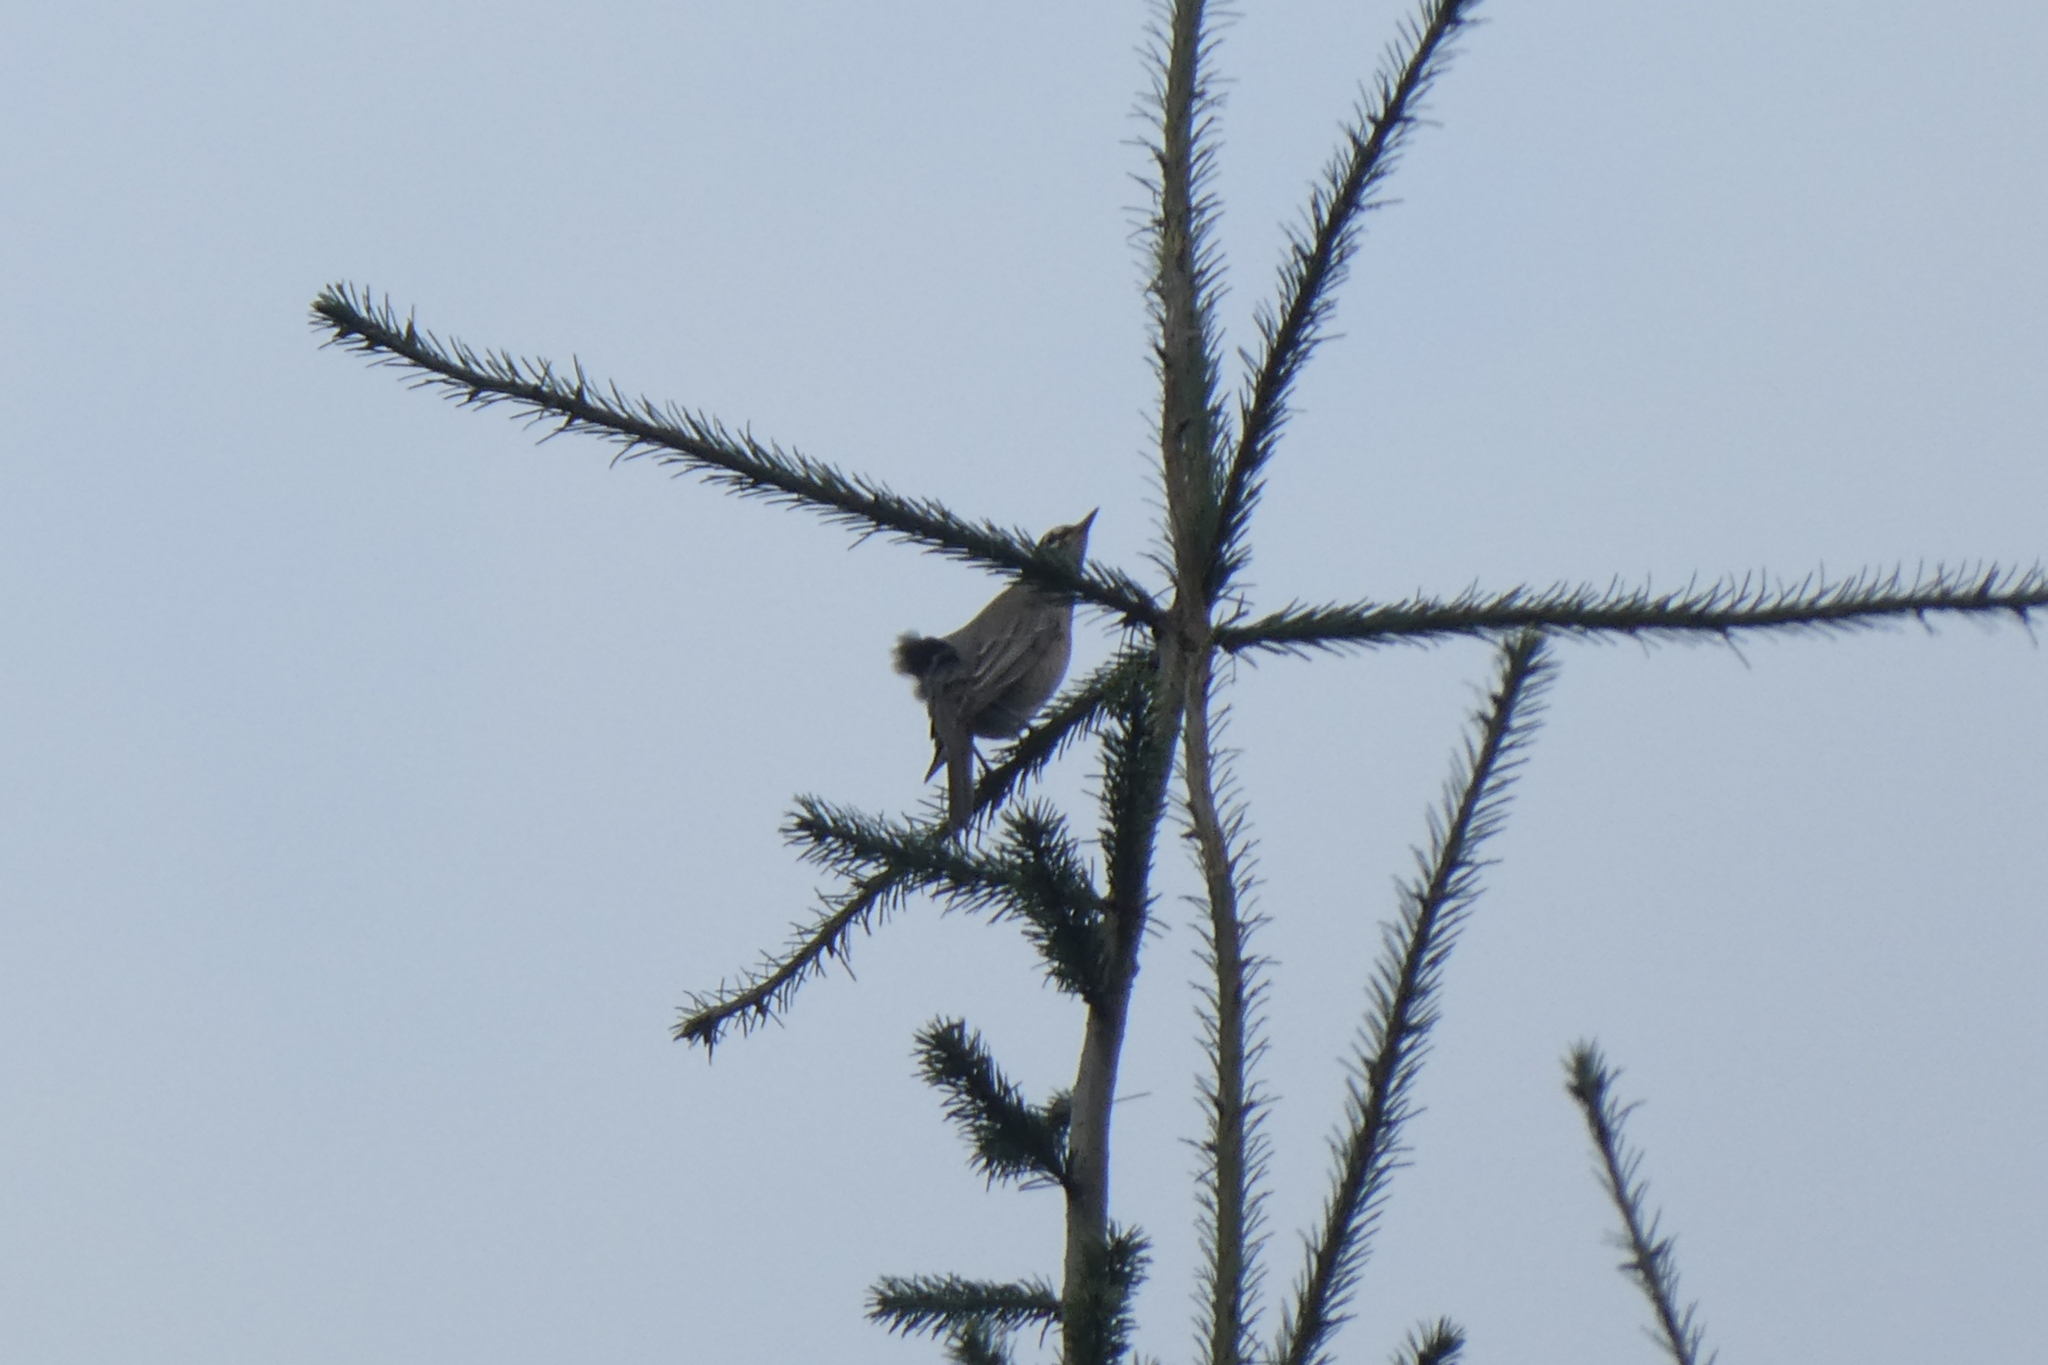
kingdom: Animalia
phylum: Chordata
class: Aves
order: Passeriformes
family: Turdidae
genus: Turdus
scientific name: Turdus migratorius
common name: American robin
